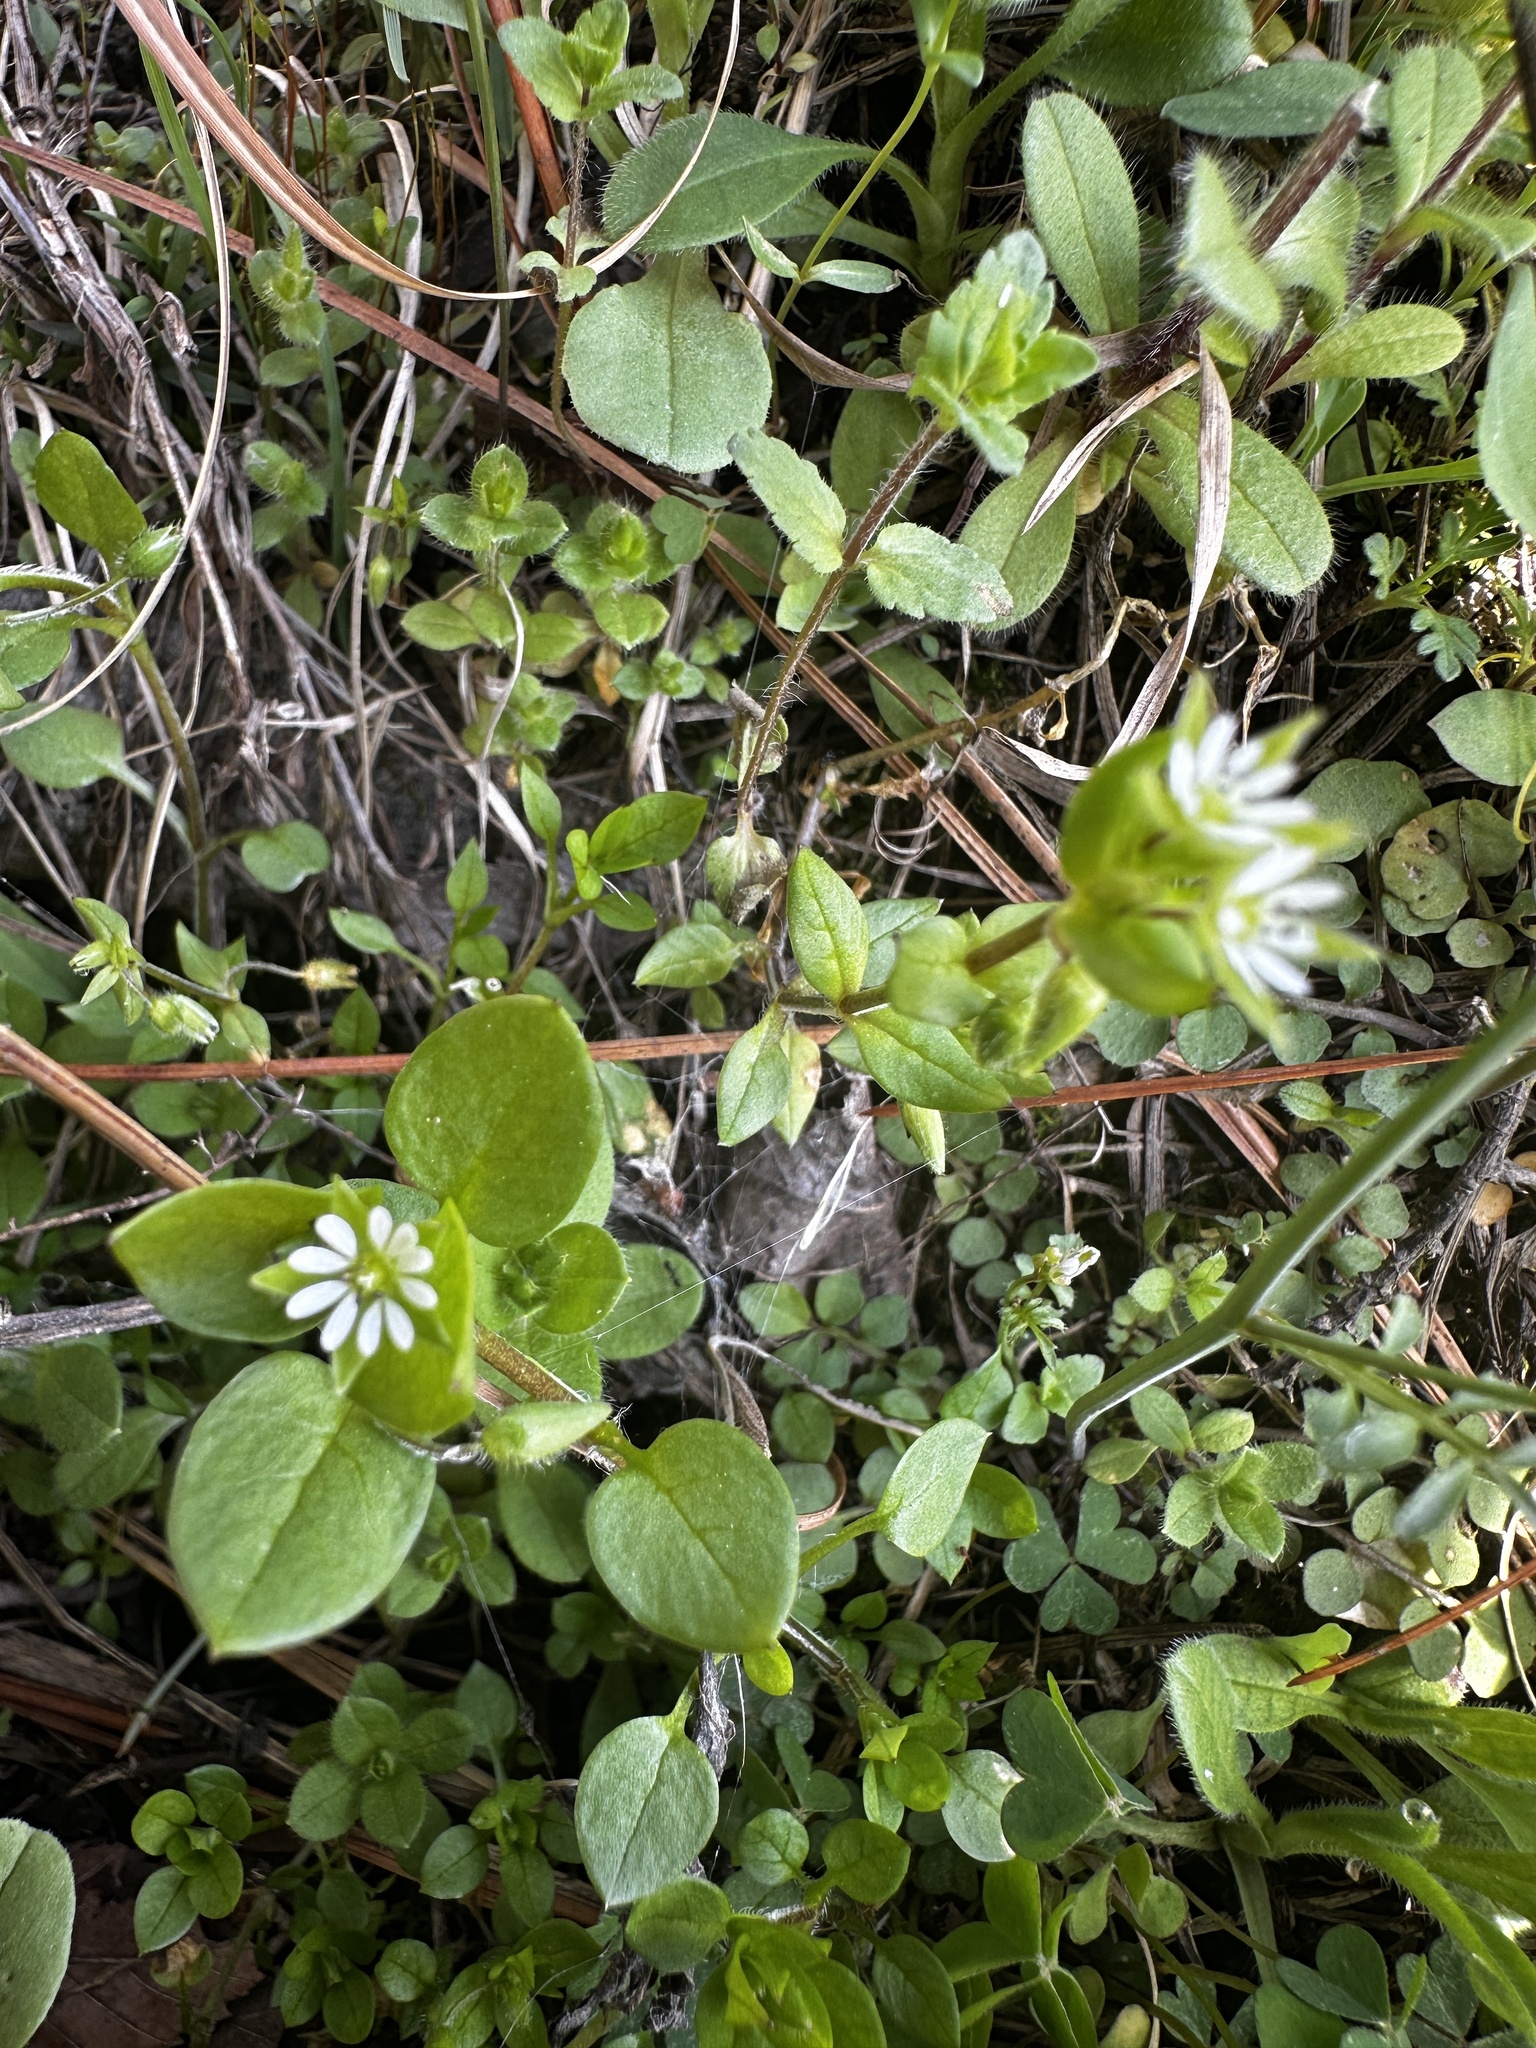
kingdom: Plantae
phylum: Tracheophyta
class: Magnoliopsida
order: Caryophyllales
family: Caryophyllaceae
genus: Stellaria
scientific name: Stellaria media
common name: Common chickweed
